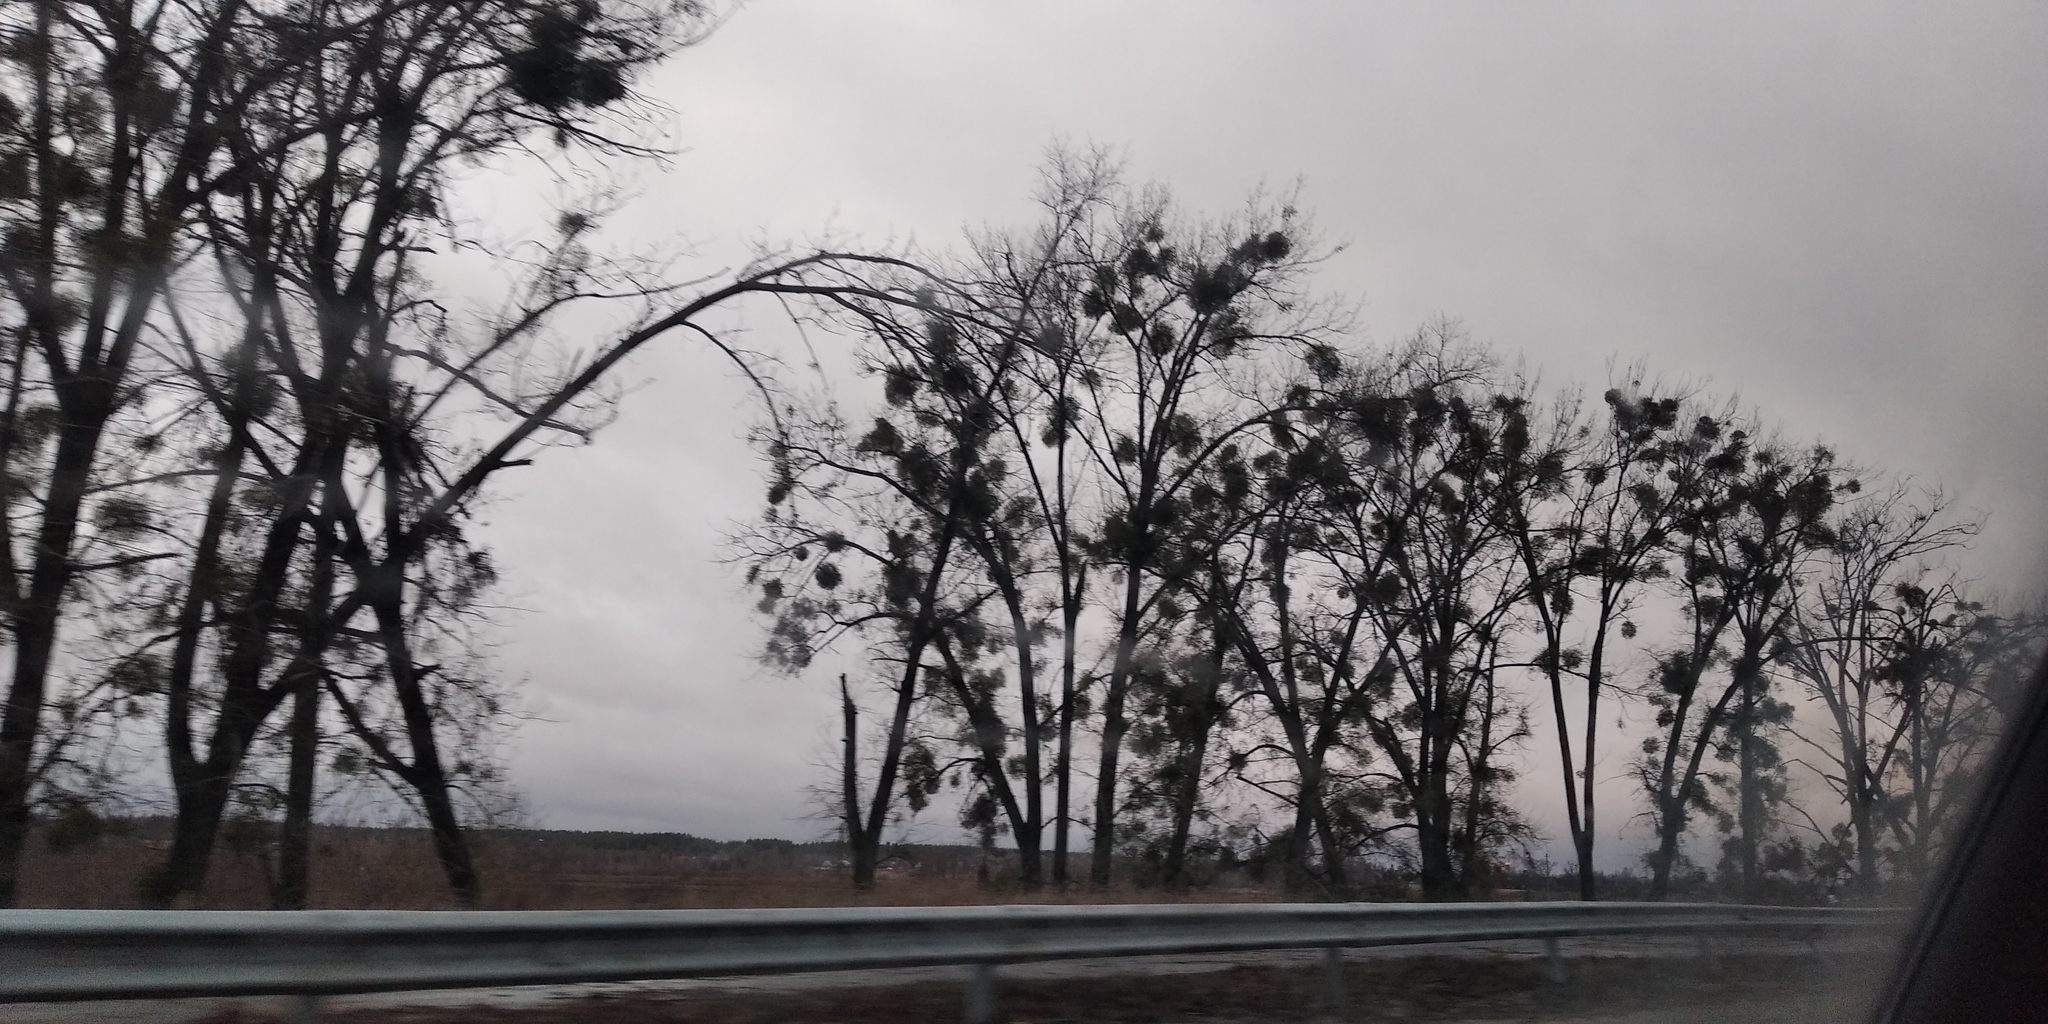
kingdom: Plantae
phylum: Tracheophyta
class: Magnoliopsida
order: Santalales
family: Viscaceae
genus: Viscum
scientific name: Viscum album
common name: Mistletoe
